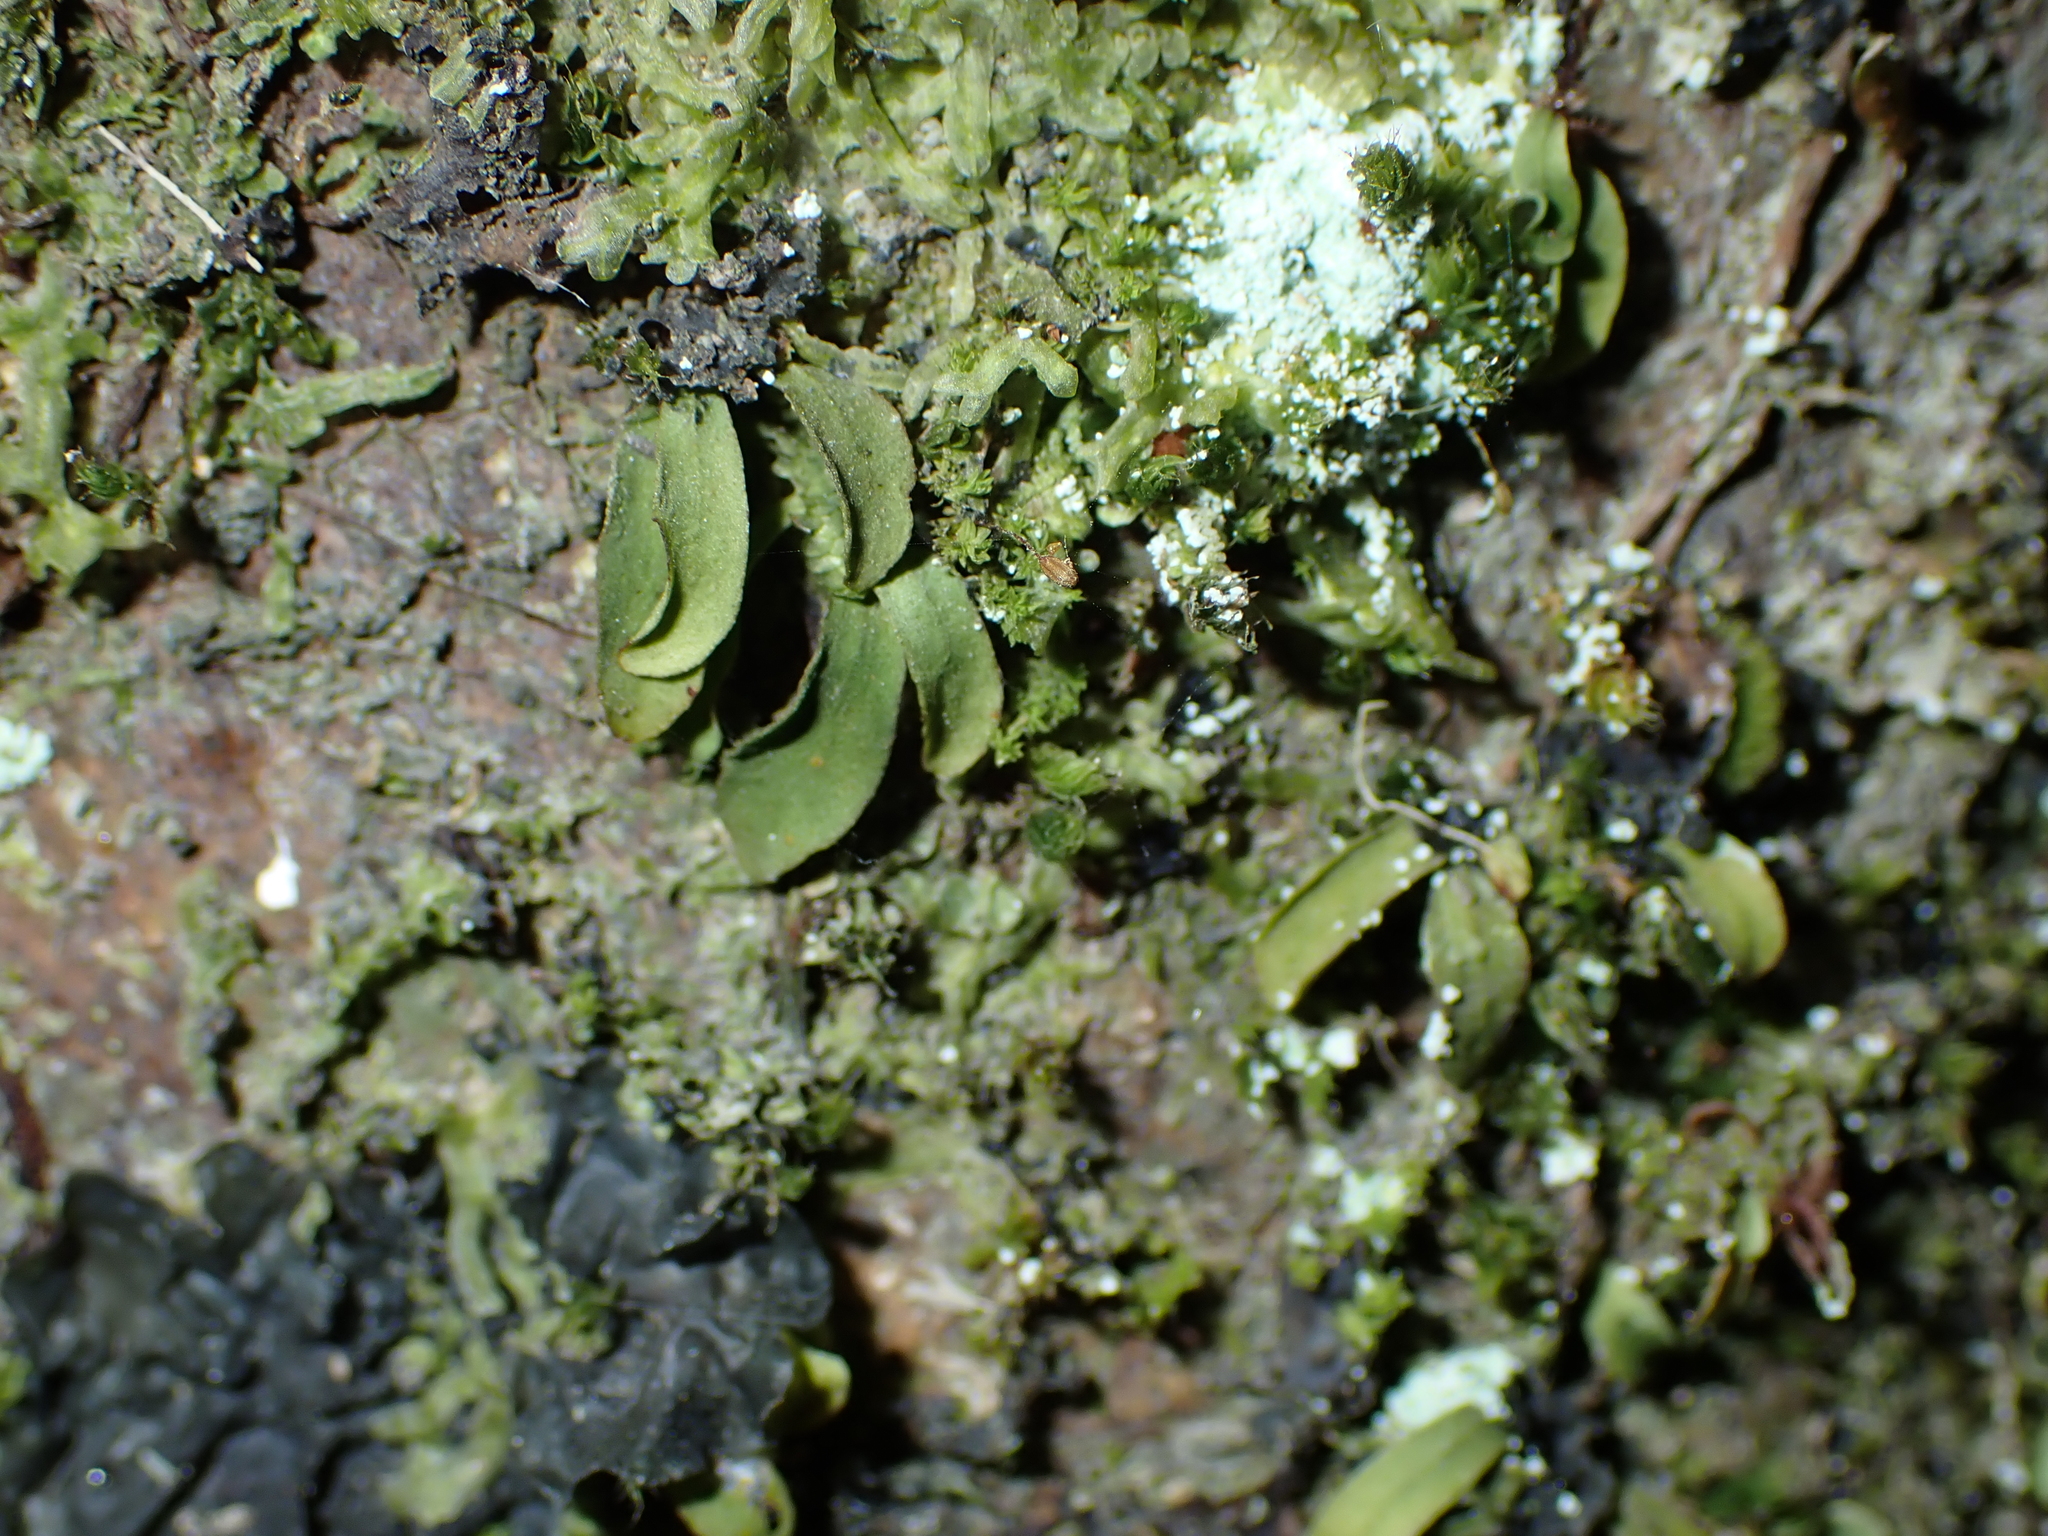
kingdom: Plantae
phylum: Tracheophyta
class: Polypodiopsida
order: Polypodiales
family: Polypodiaceae
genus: Loxogramme
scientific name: Loxogramme dictyopteris
